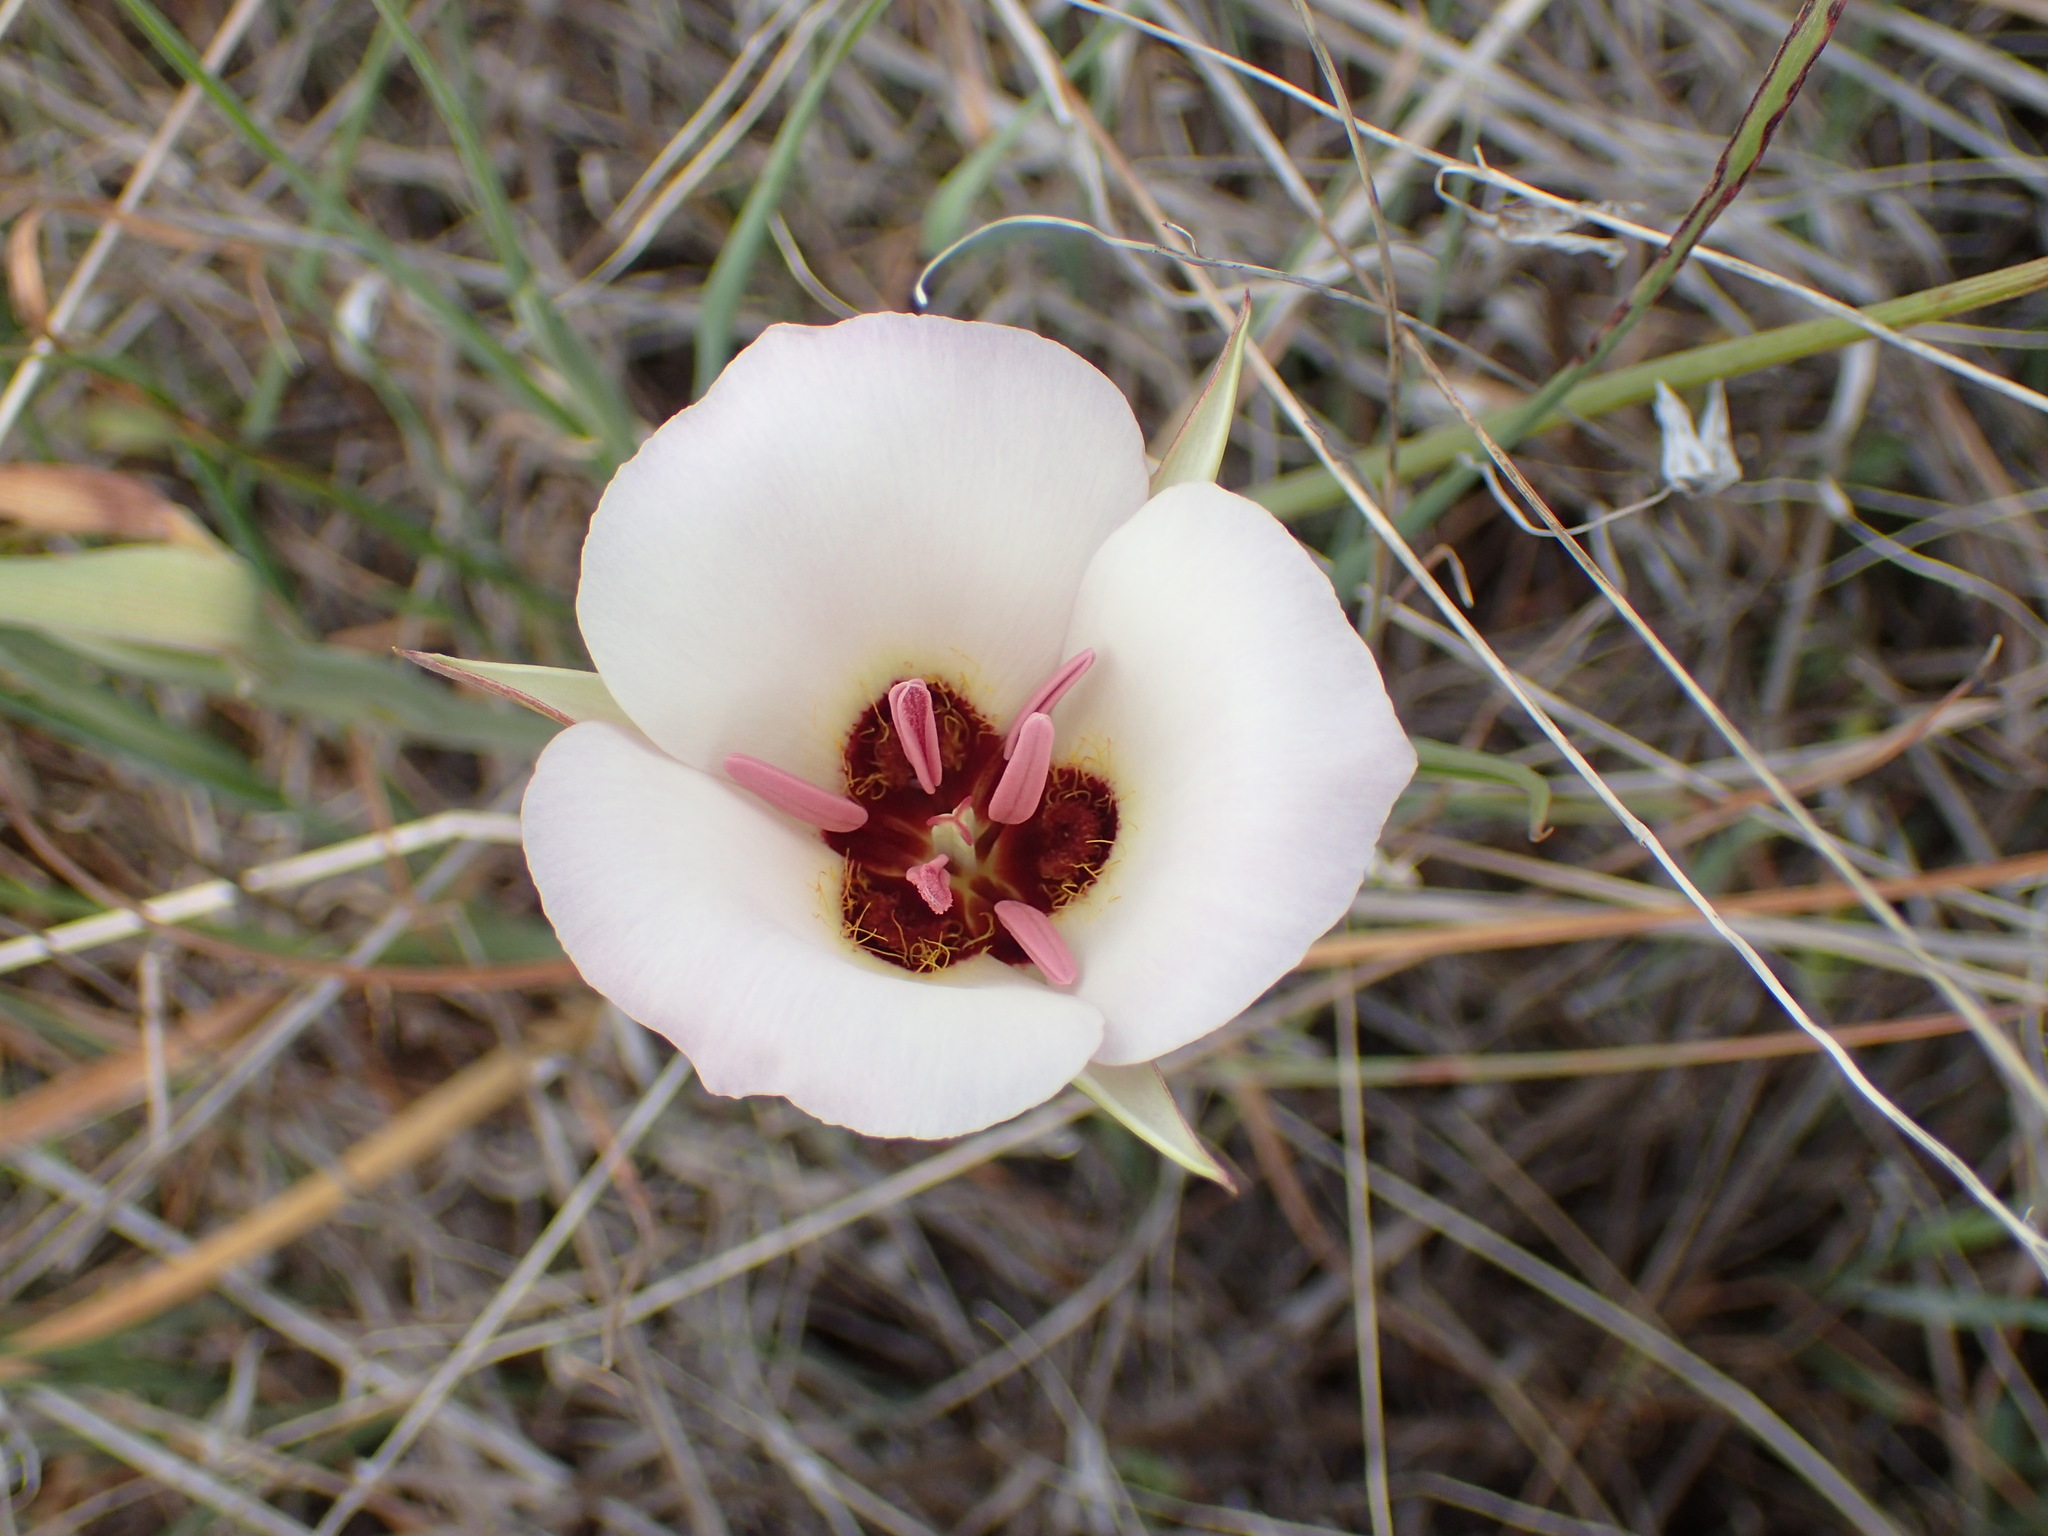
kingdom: Plantae
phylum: Tracheophyta
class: Liliopsida
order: Liliales
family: Liliaceae
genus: Calochortus
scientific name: Calochortus catalinae
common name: Catalina mariposa-lily
